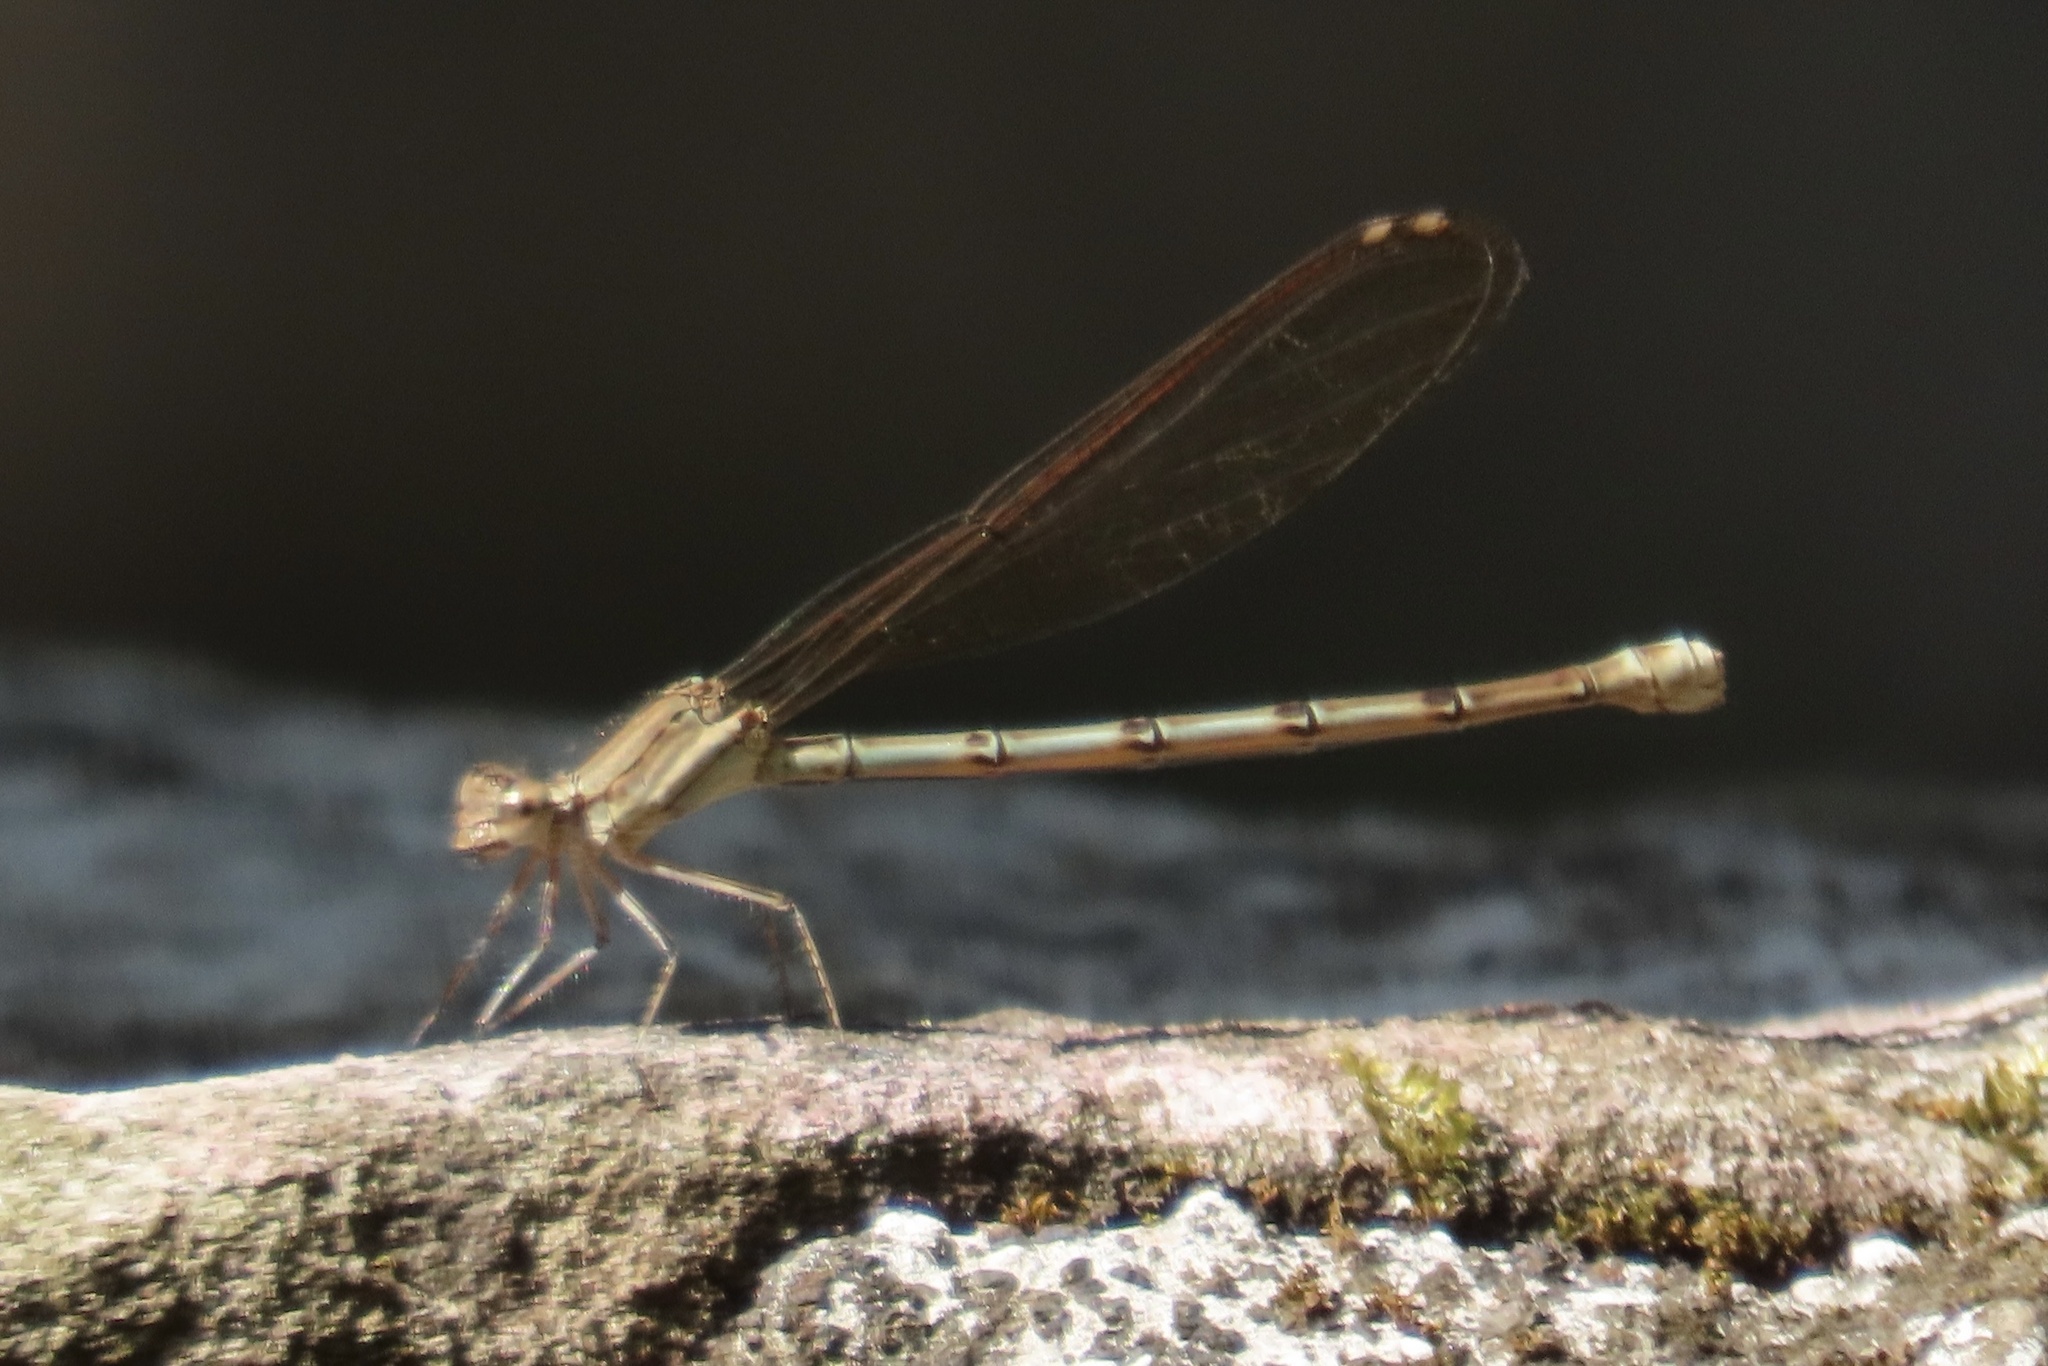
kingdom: Animalia
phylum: Arthropoda
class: Insecta
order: Odonata
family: Coenagrionidae
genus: Argia
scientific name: Argia anceps
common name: Cerulean dancer
